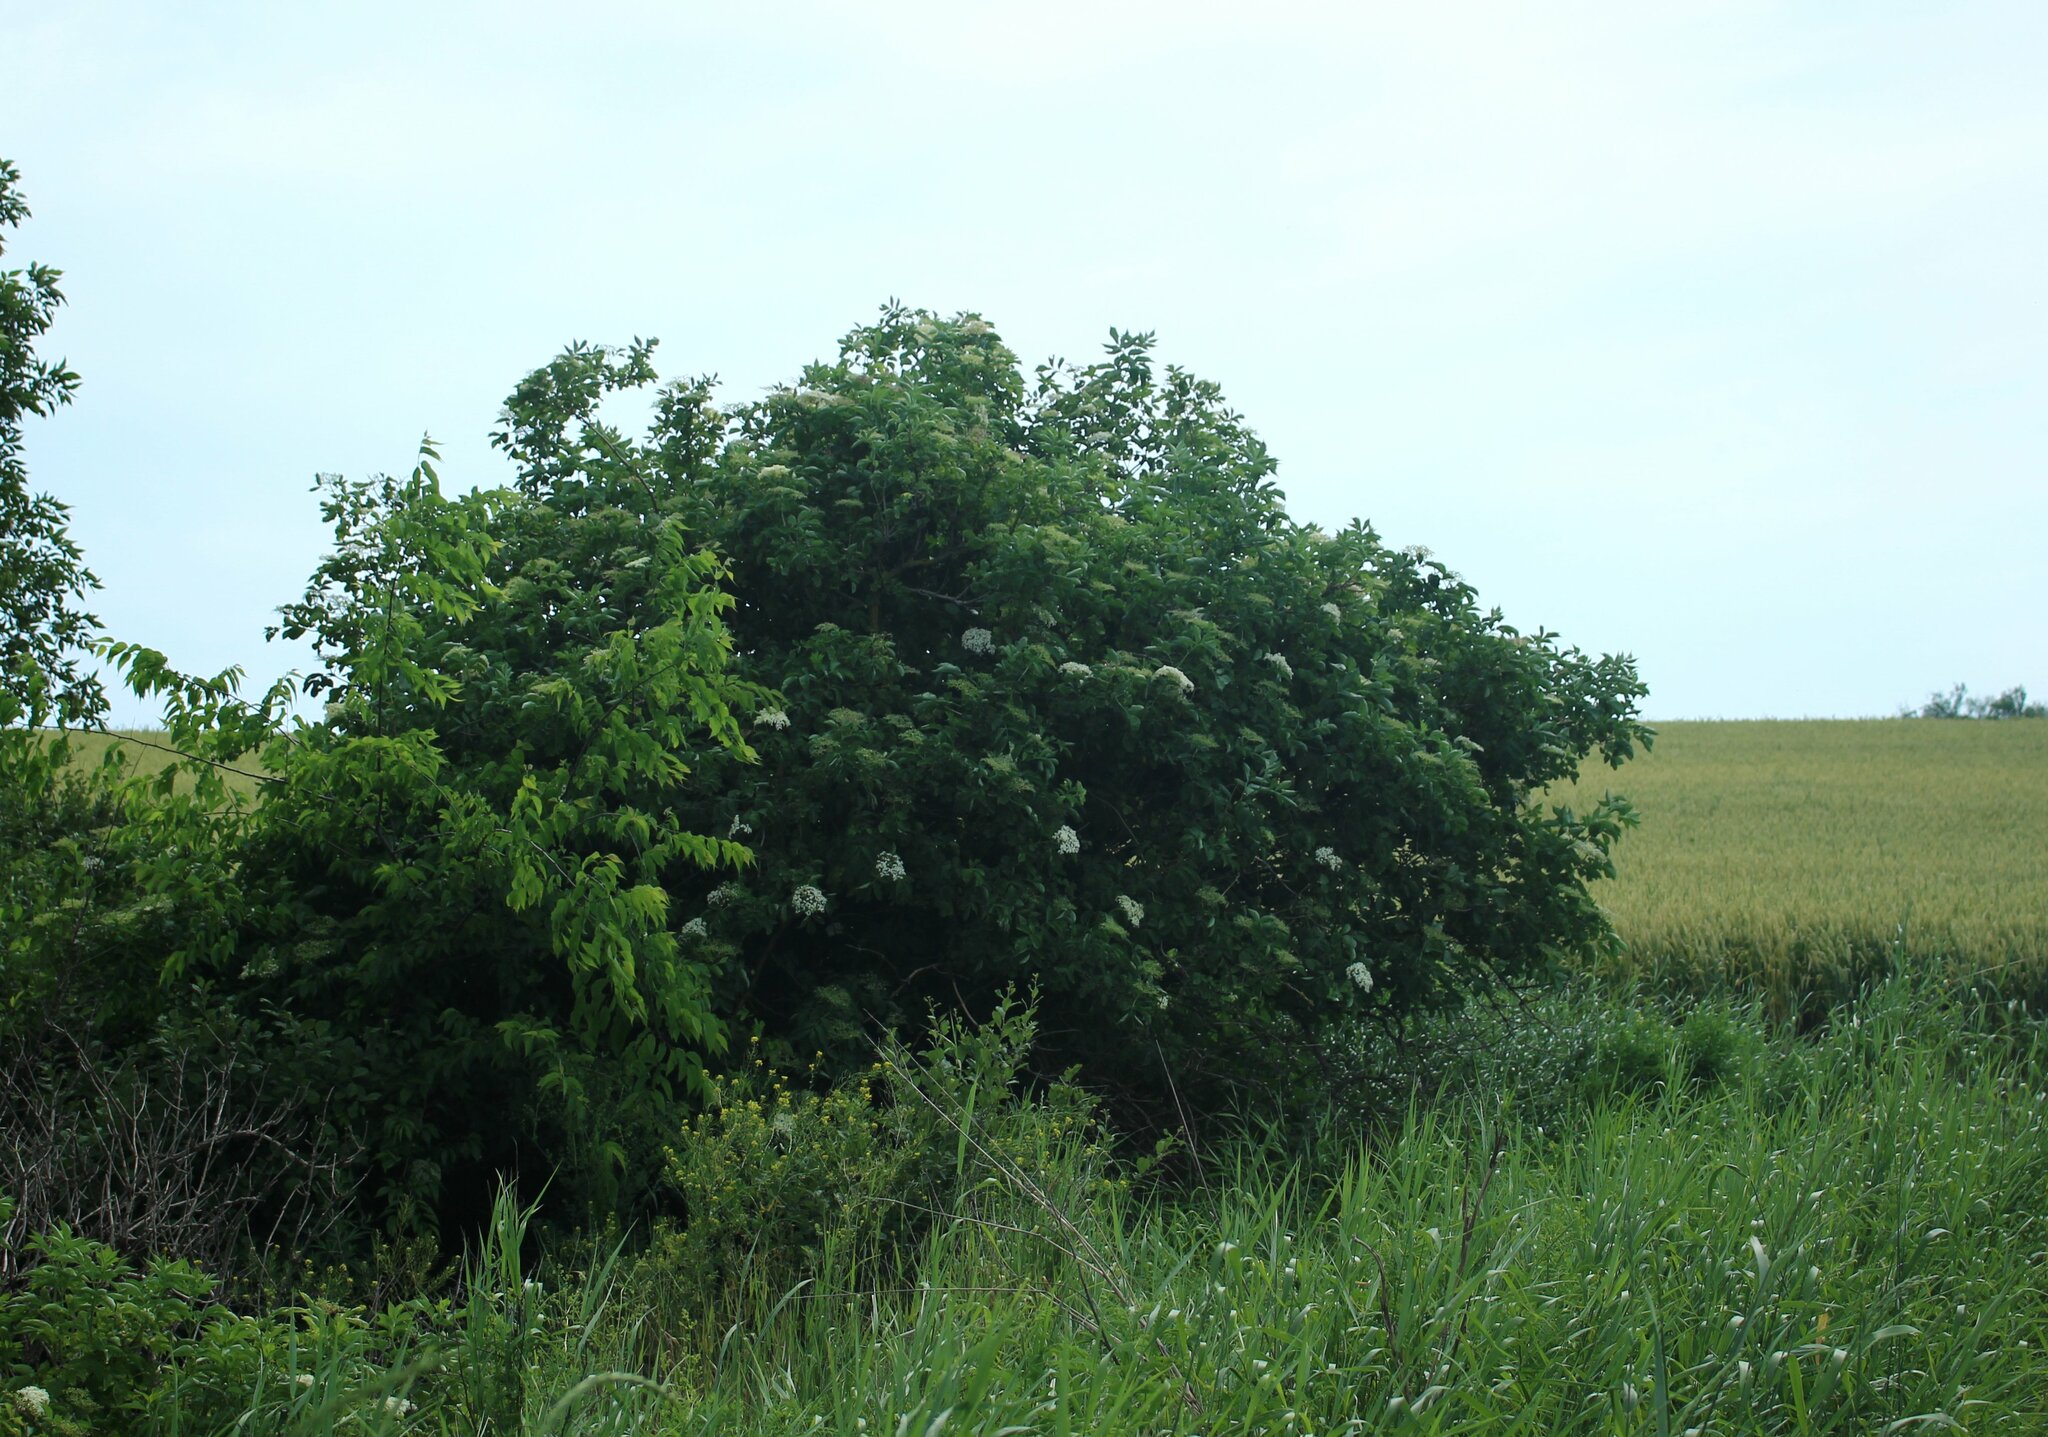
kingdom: Plantae
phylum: Tracheophyta
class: Magnoliopsida
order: Dipsacales
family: Viburnaceae
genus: Sambucus
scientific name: Sambucus nigra
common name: Elder
